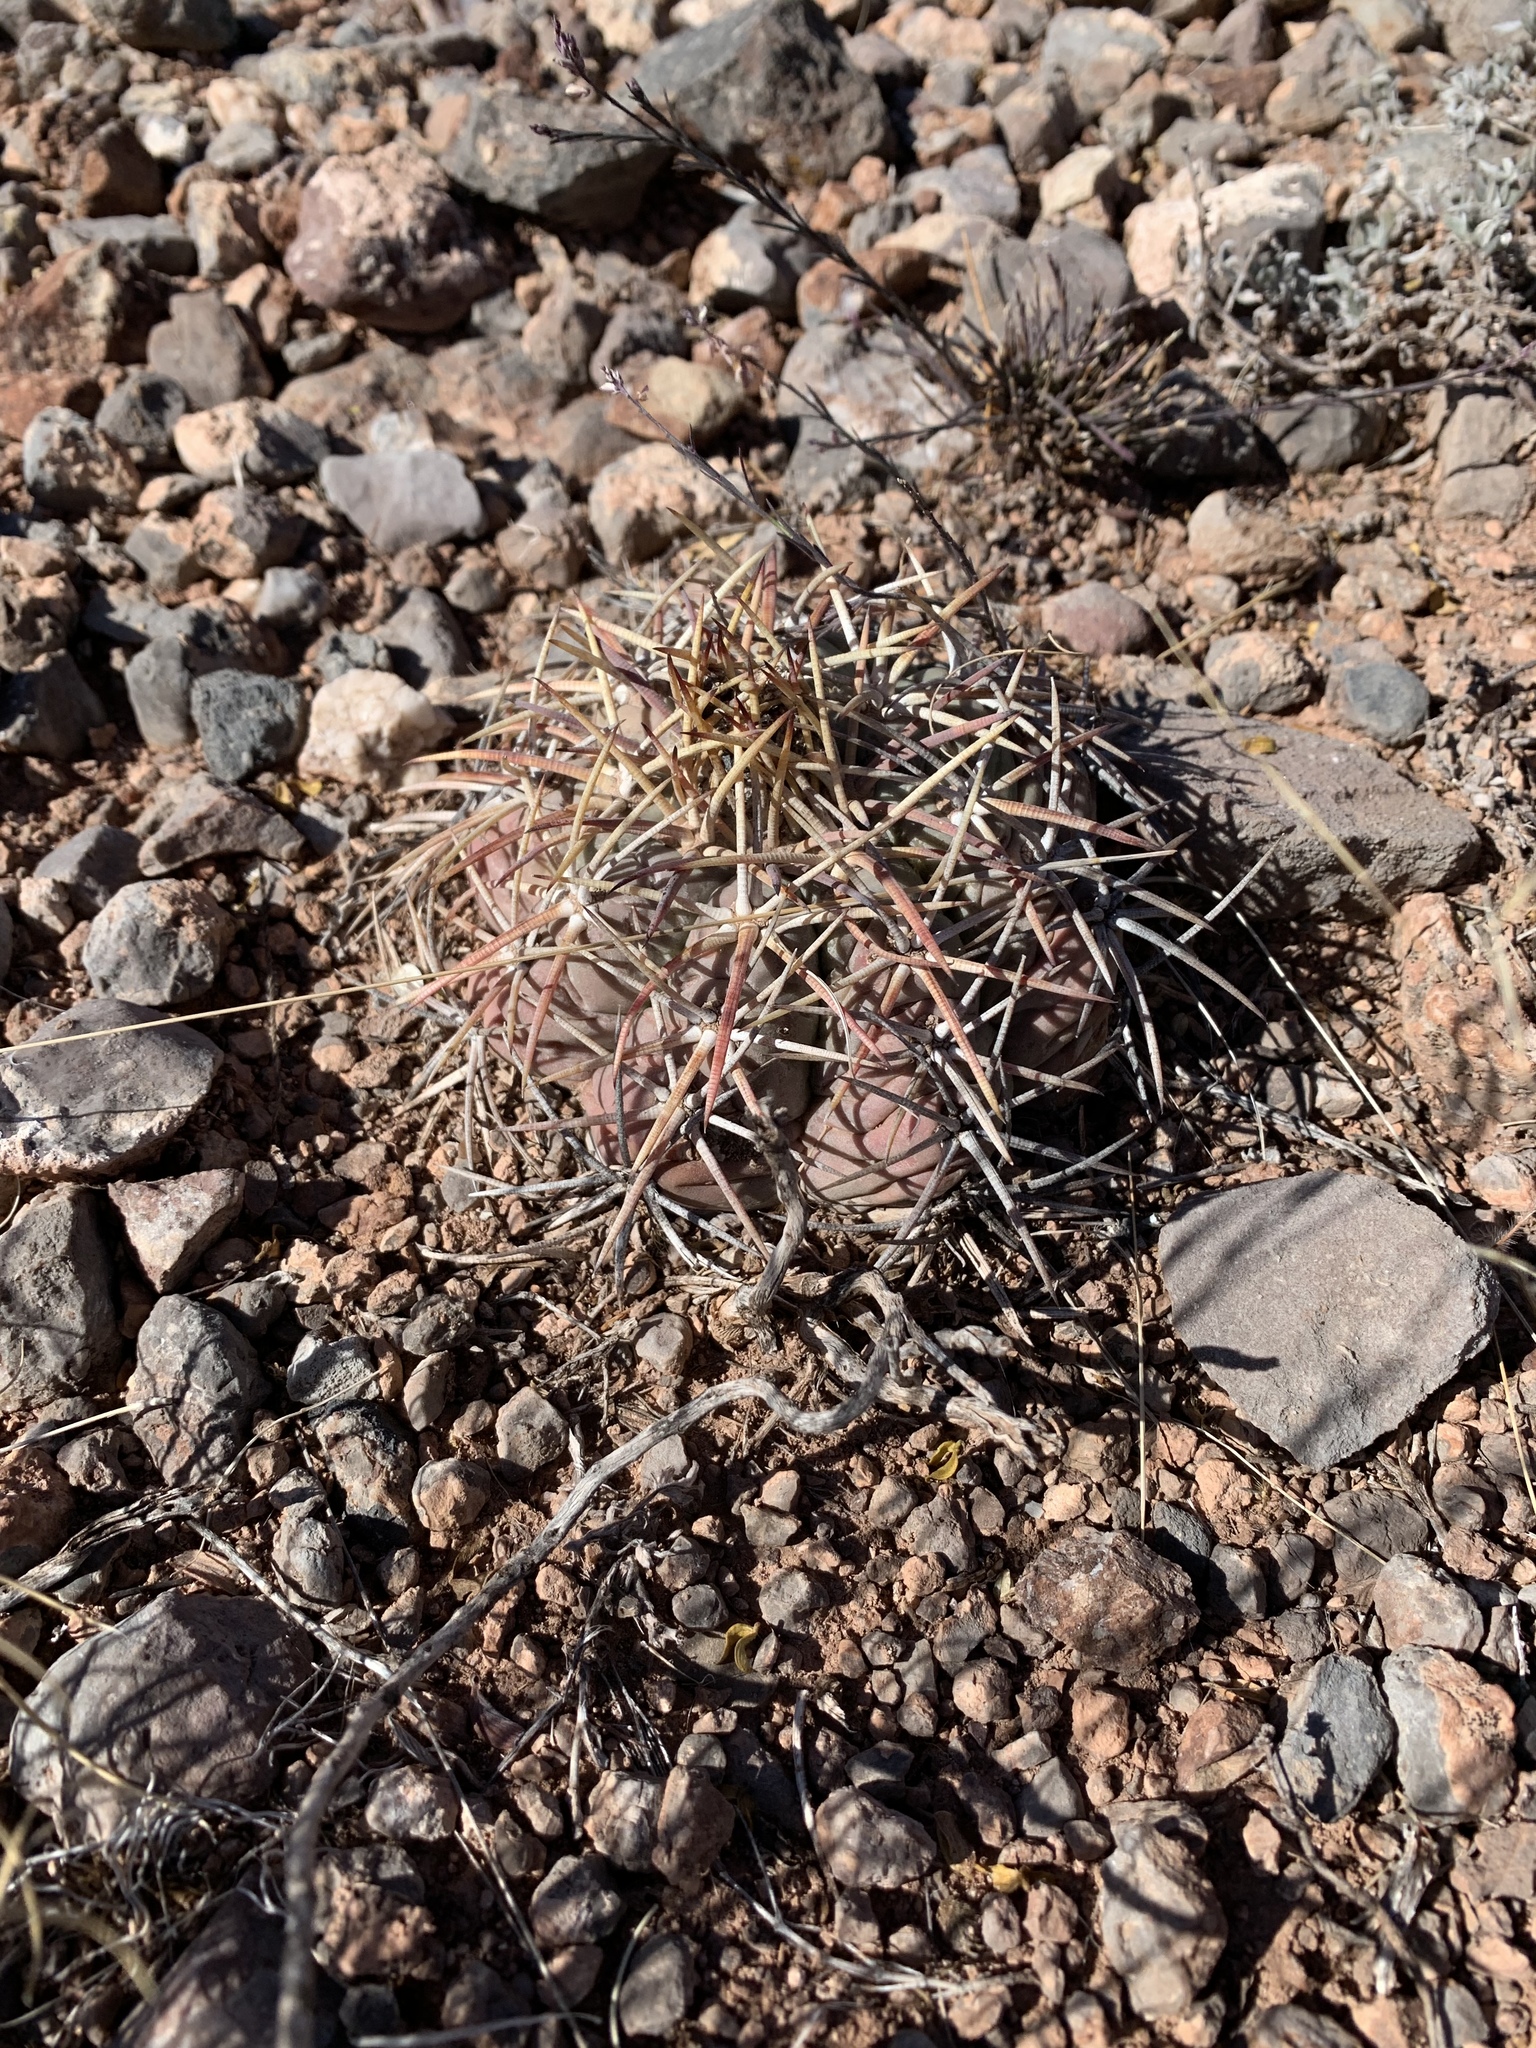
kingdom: Plantae
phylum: Tracheophyta
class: Magnoliopsida
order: Caryophyllales
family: Cactaceae
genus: Echinocactus
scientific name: Echinocactus horizonthalonius
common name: Devilshead
